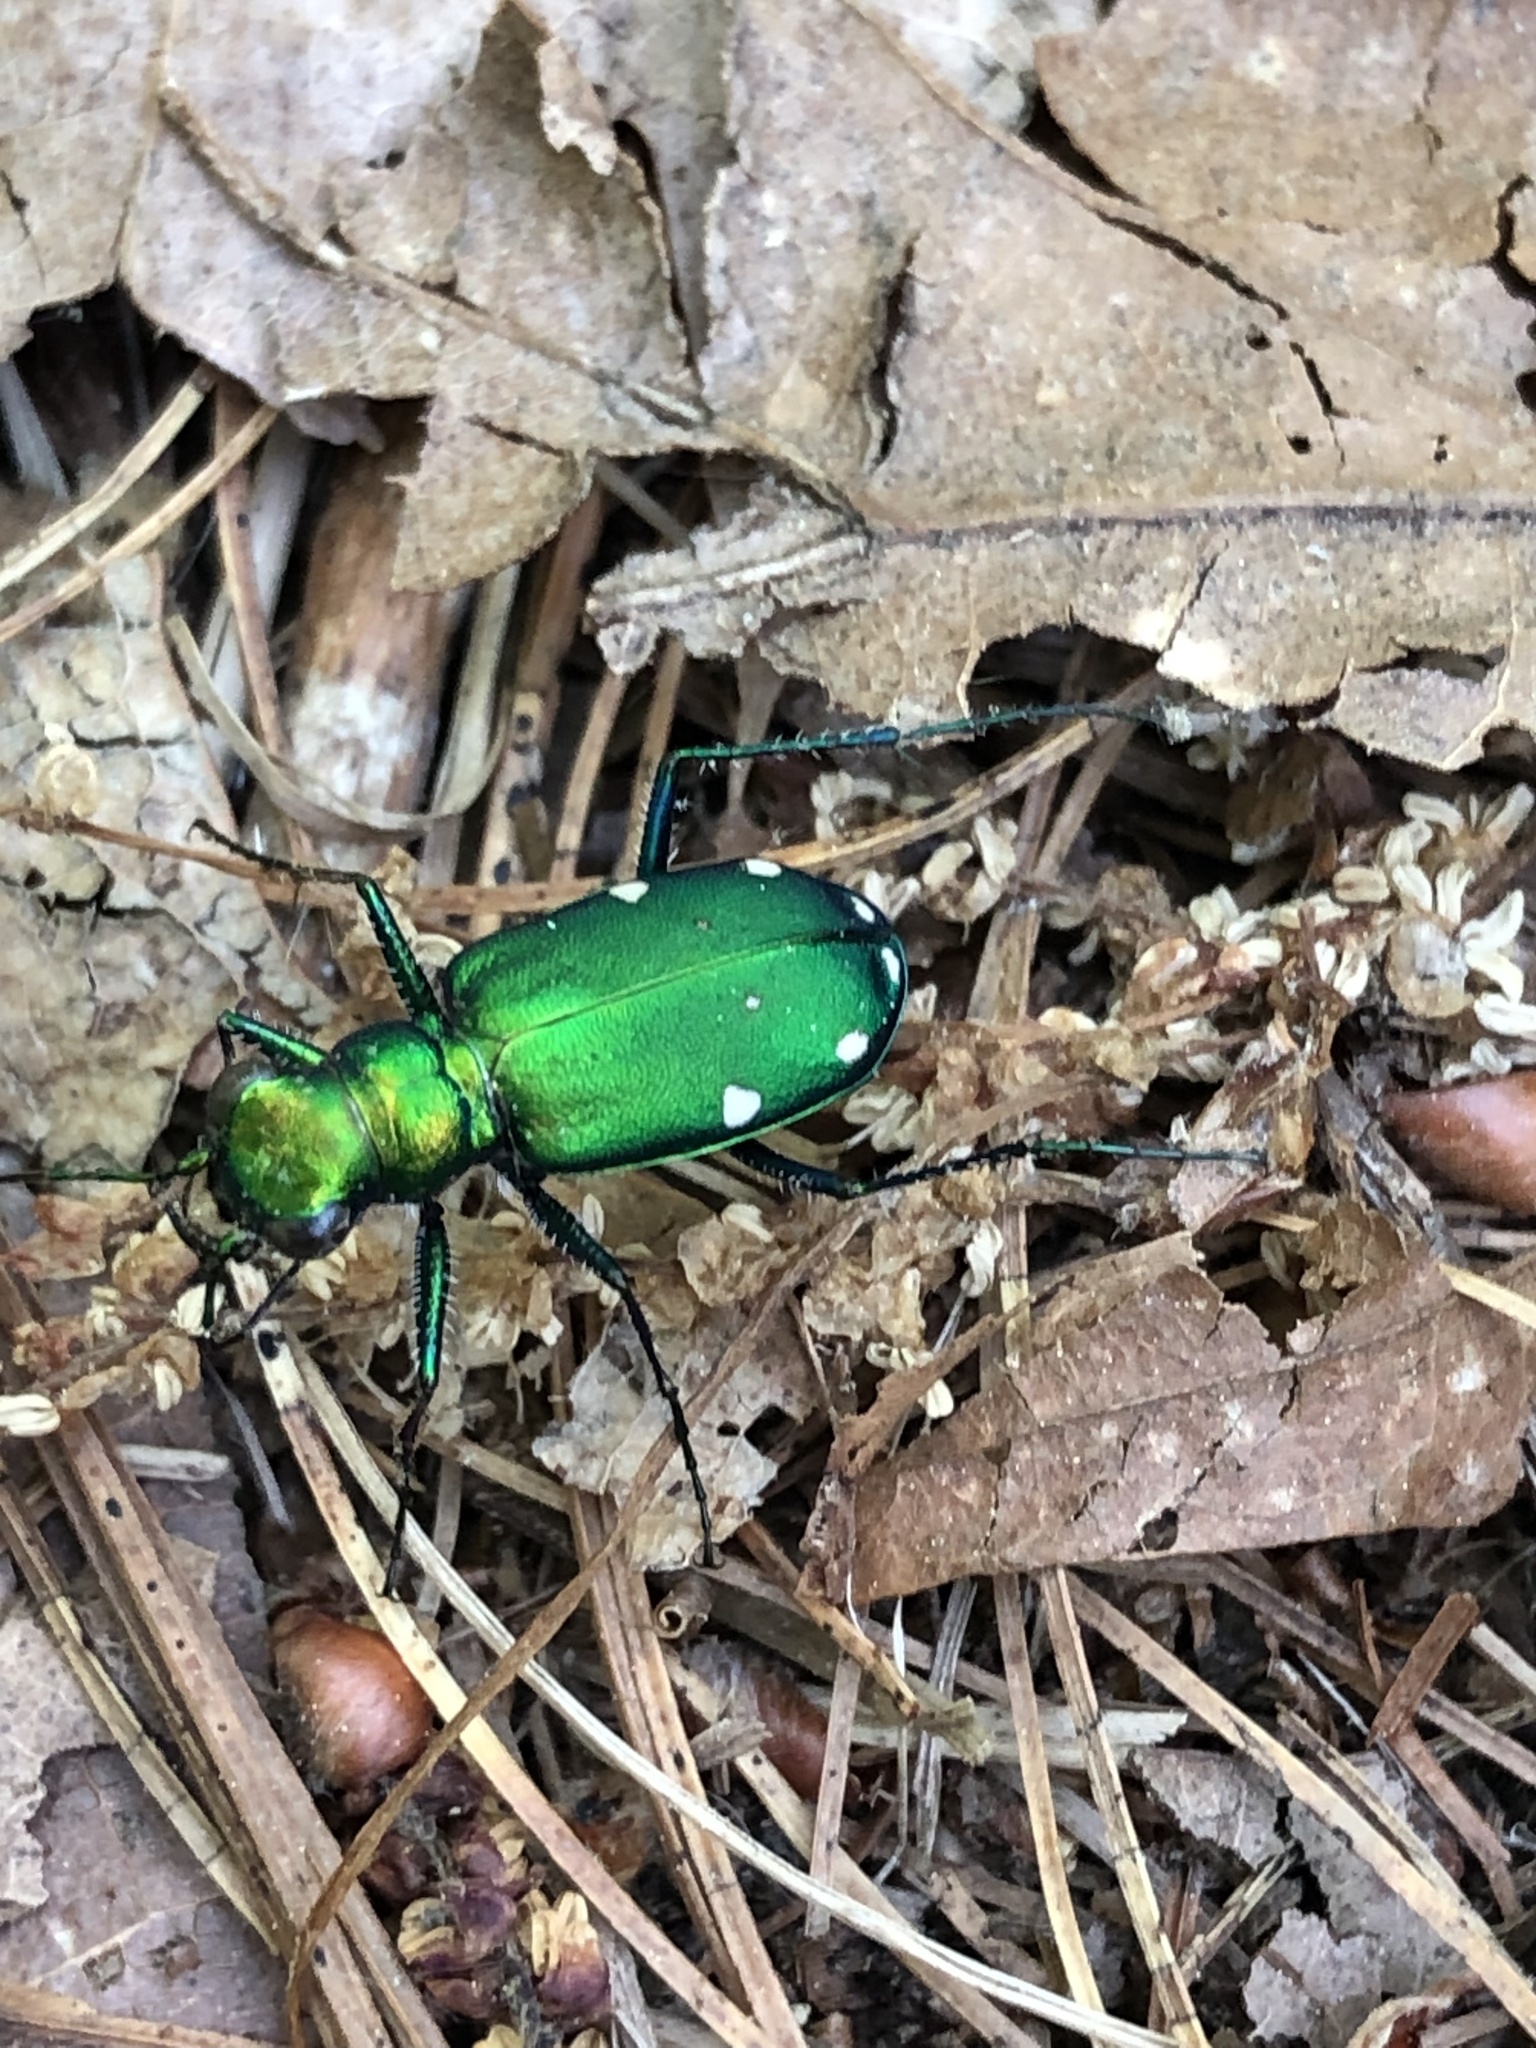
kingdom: Animalia
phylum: Arthropoda
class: Insecta
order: Coleoptera
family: Carabidae
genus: Cicindela
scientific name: Cicindela sexguttata
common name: Six-spotted tiger beetle
